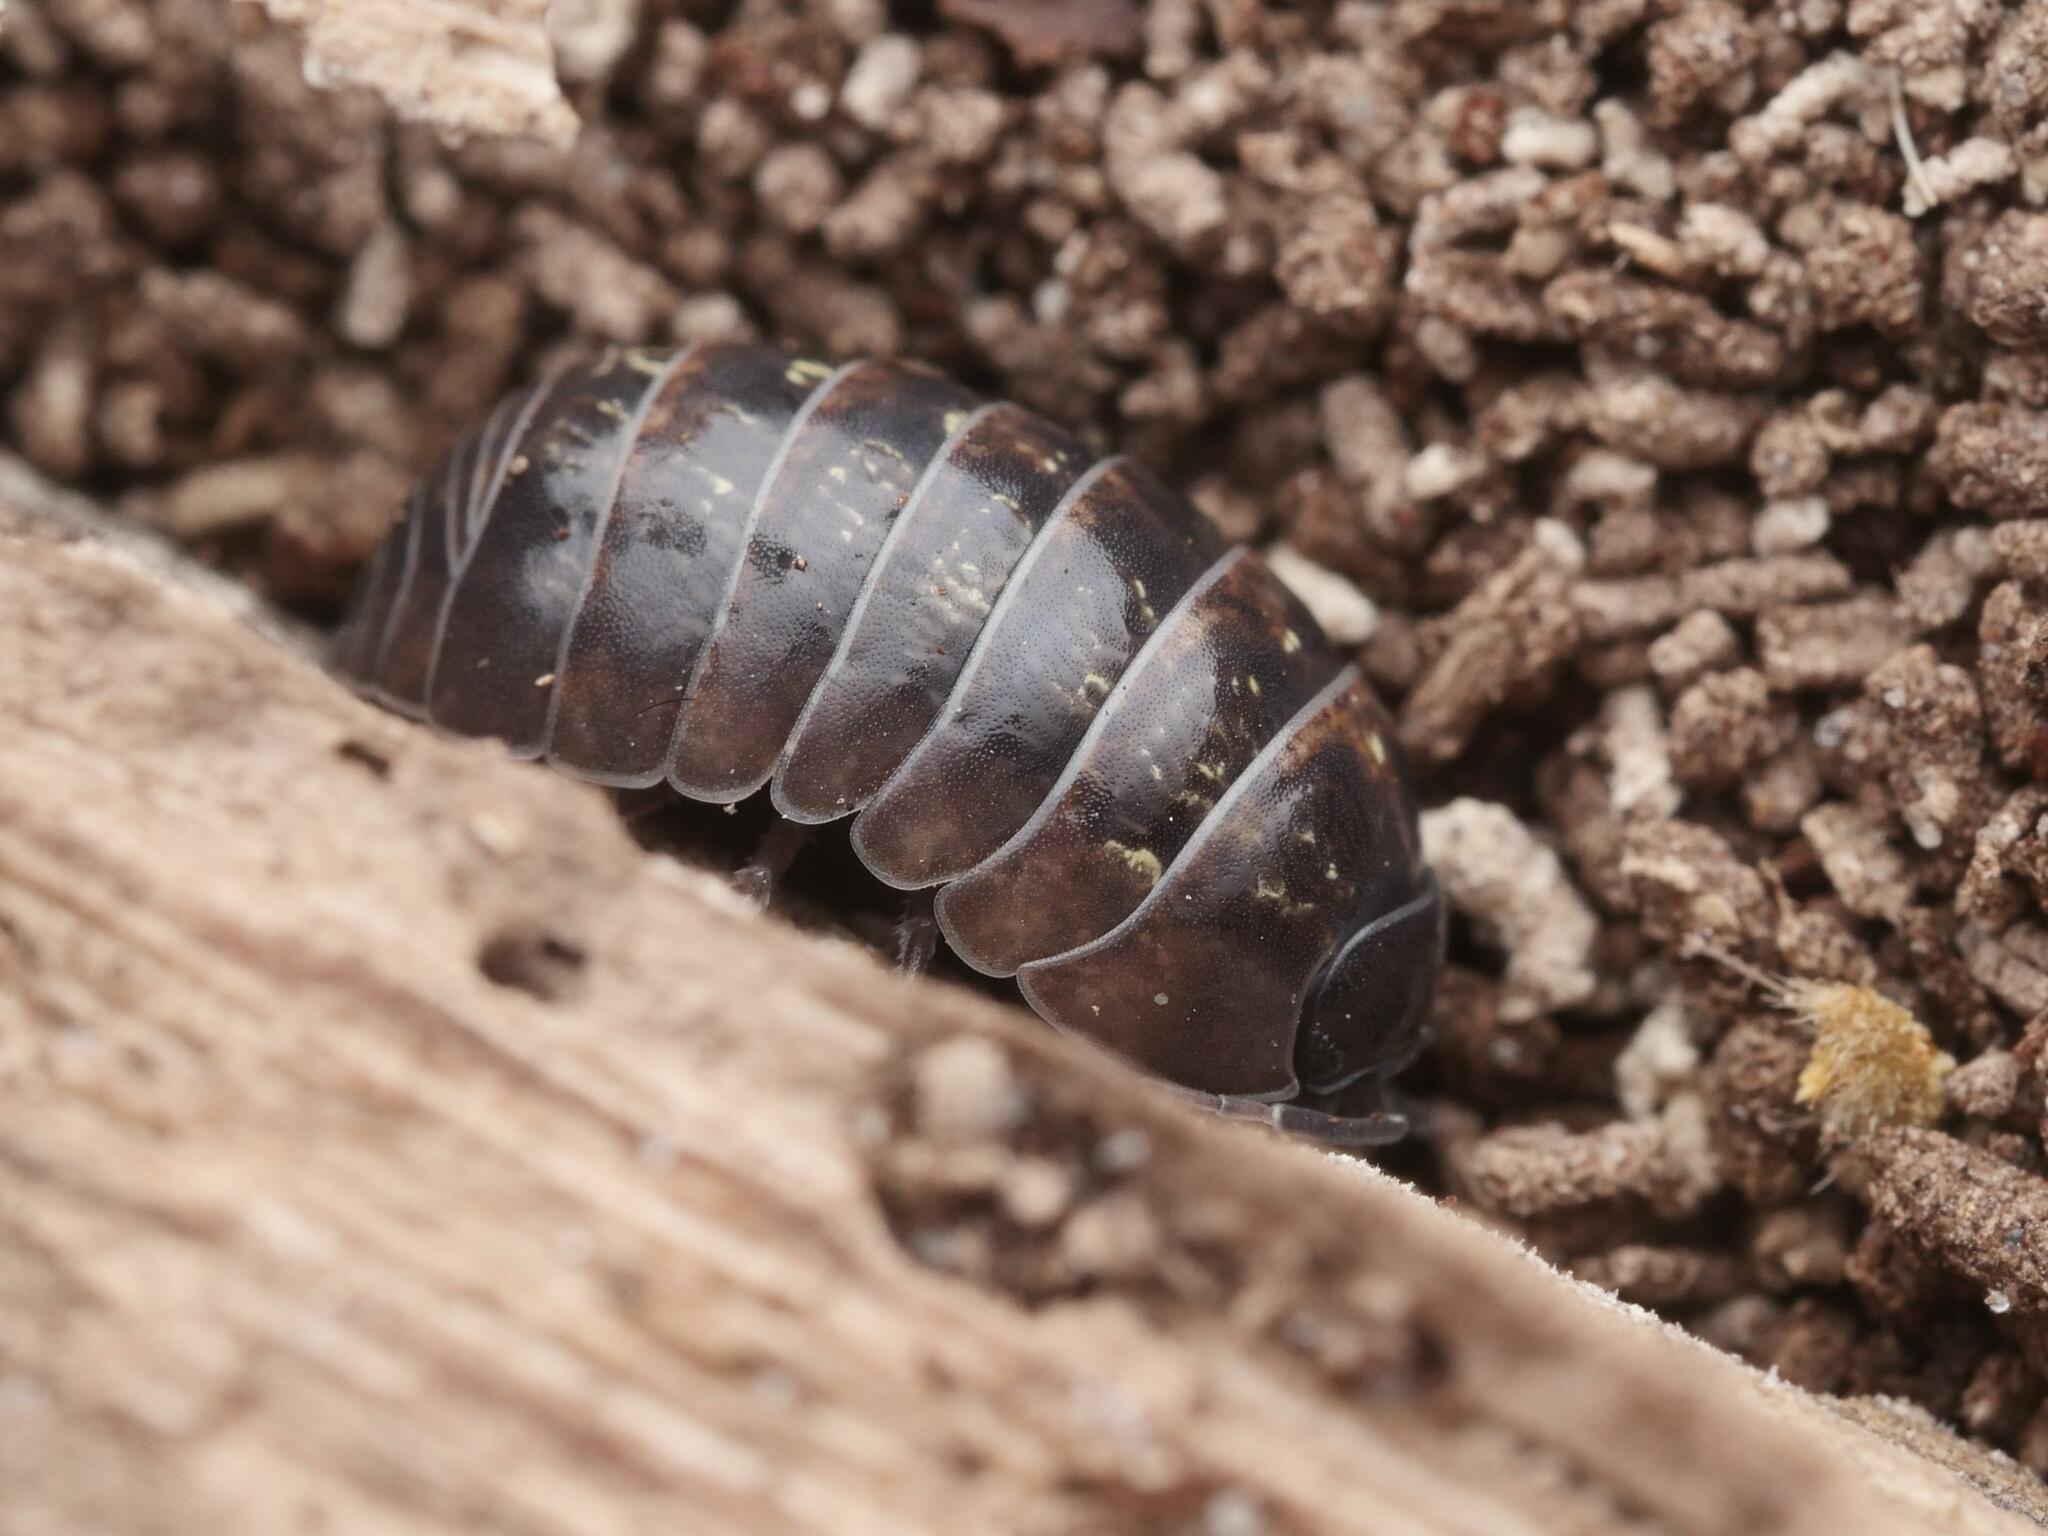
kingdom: Animalia
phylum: Arthropoda
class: Malacostraca
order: Isopoda
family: Armadillidiidae
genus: Armadillidium
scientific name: Armadillidium vulgare
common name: Common pill woodlouse
